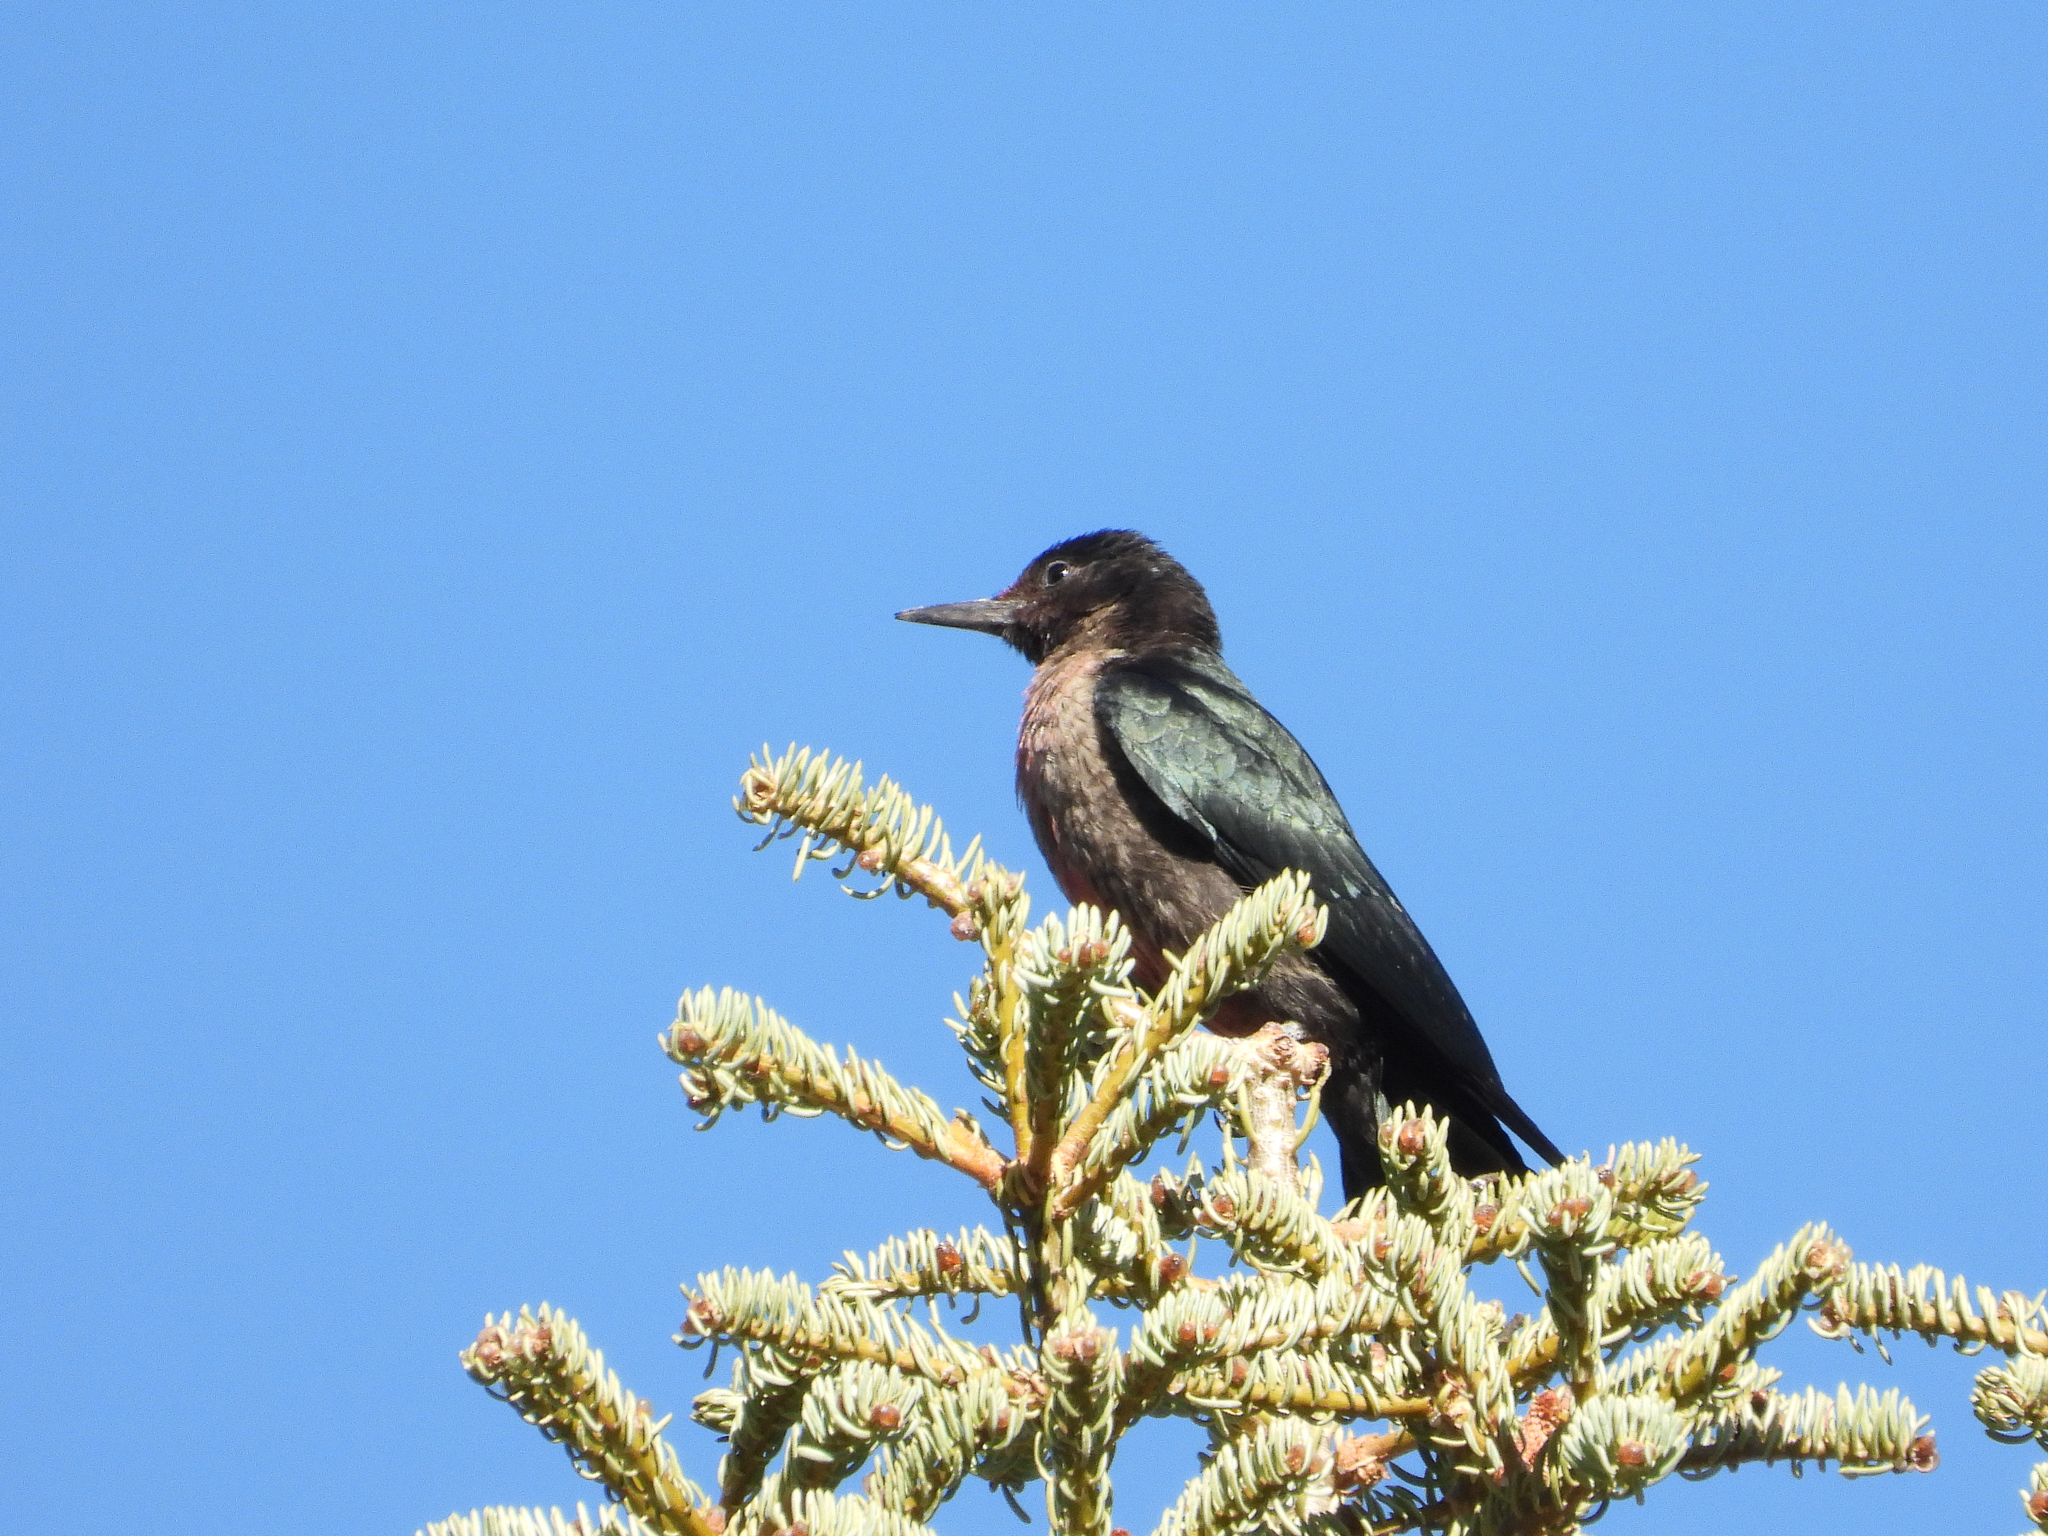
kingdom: Animalia
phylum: Chordata
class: Aves
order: Piciformes
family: Picidae
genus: Melanerpes
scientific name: Melanerpes lewis
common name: Lewis's woodpecker
